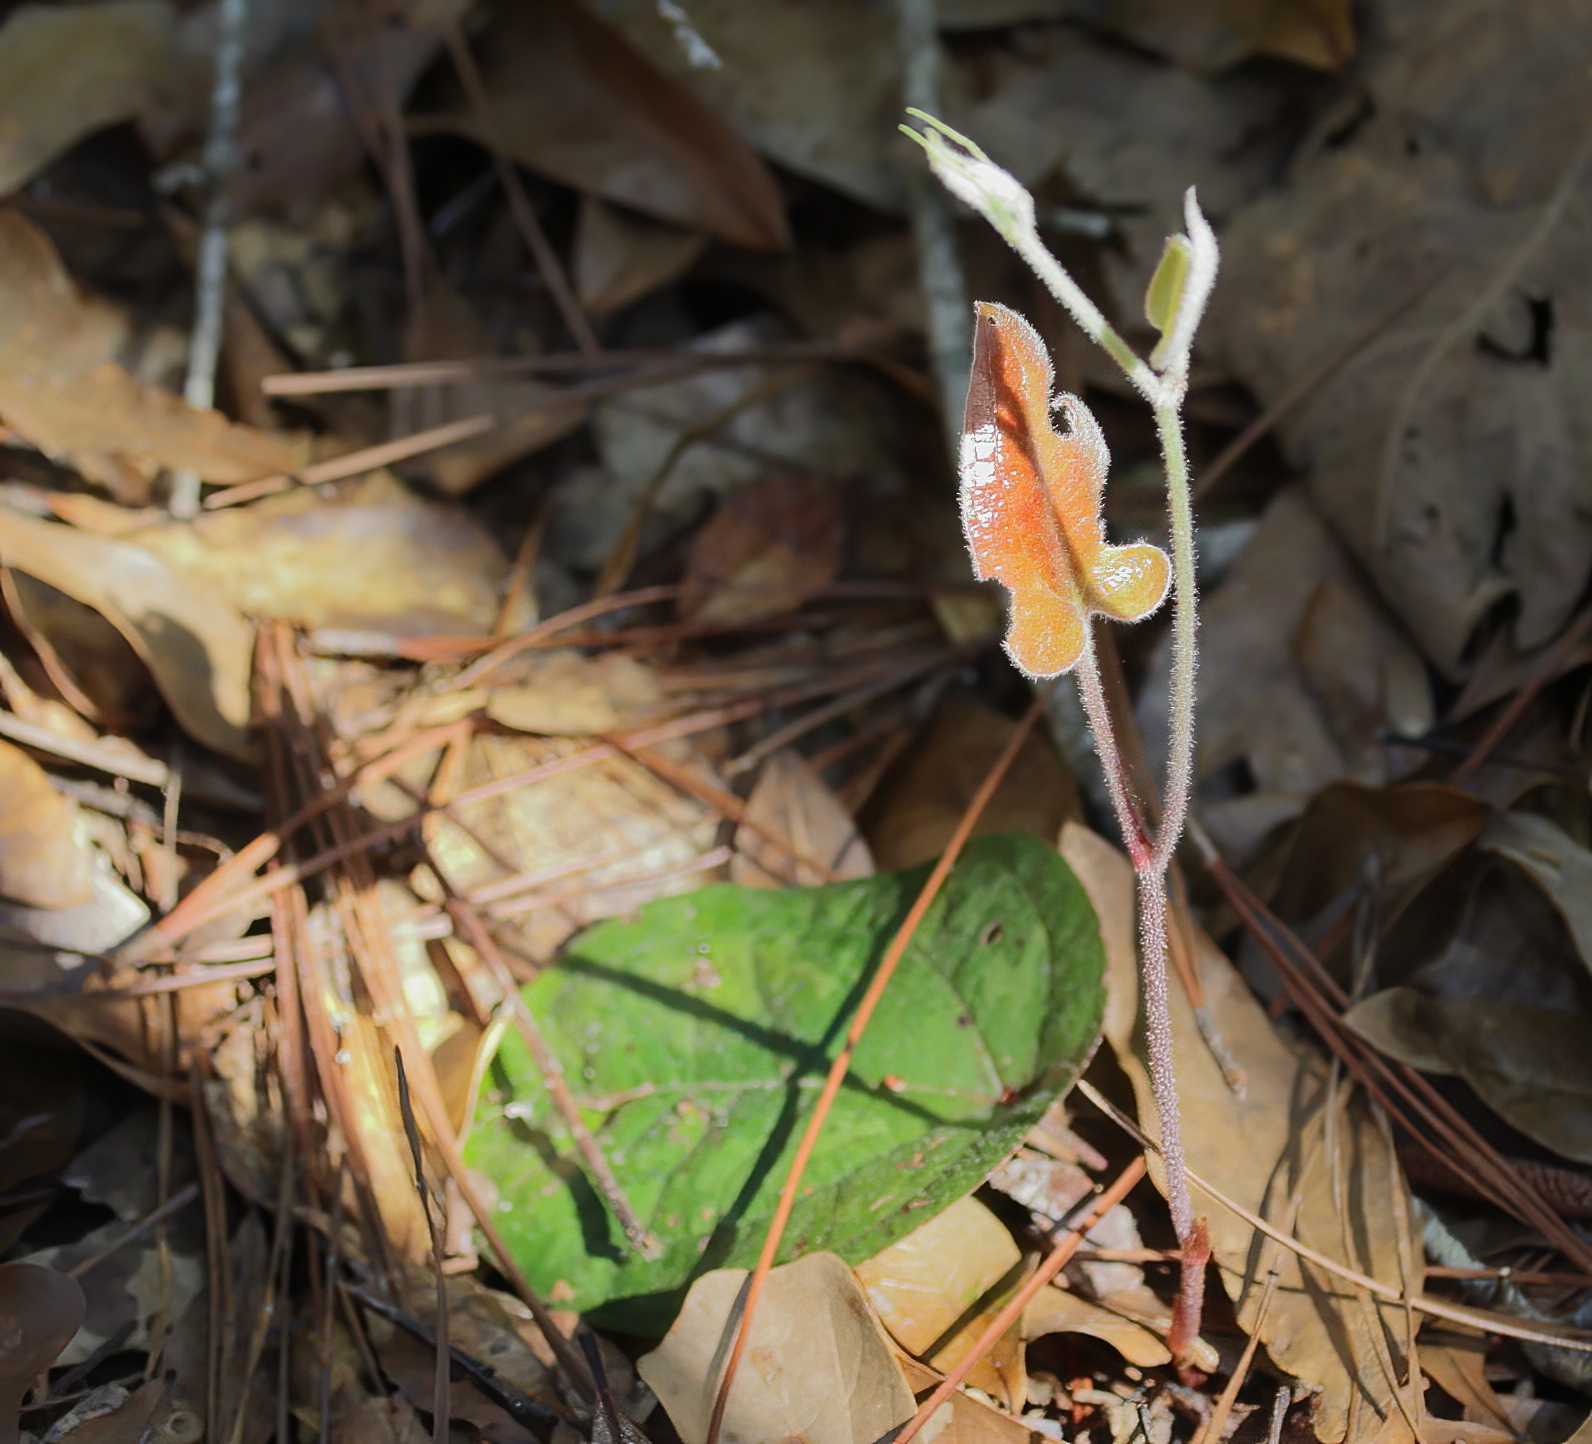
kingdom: Plantae
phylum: Tracheophyta
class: Liliopsida
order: Liliales
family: Smilacaceae
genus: Smilax
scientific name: Smilax pumila
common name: Sarsaparilla-vine
